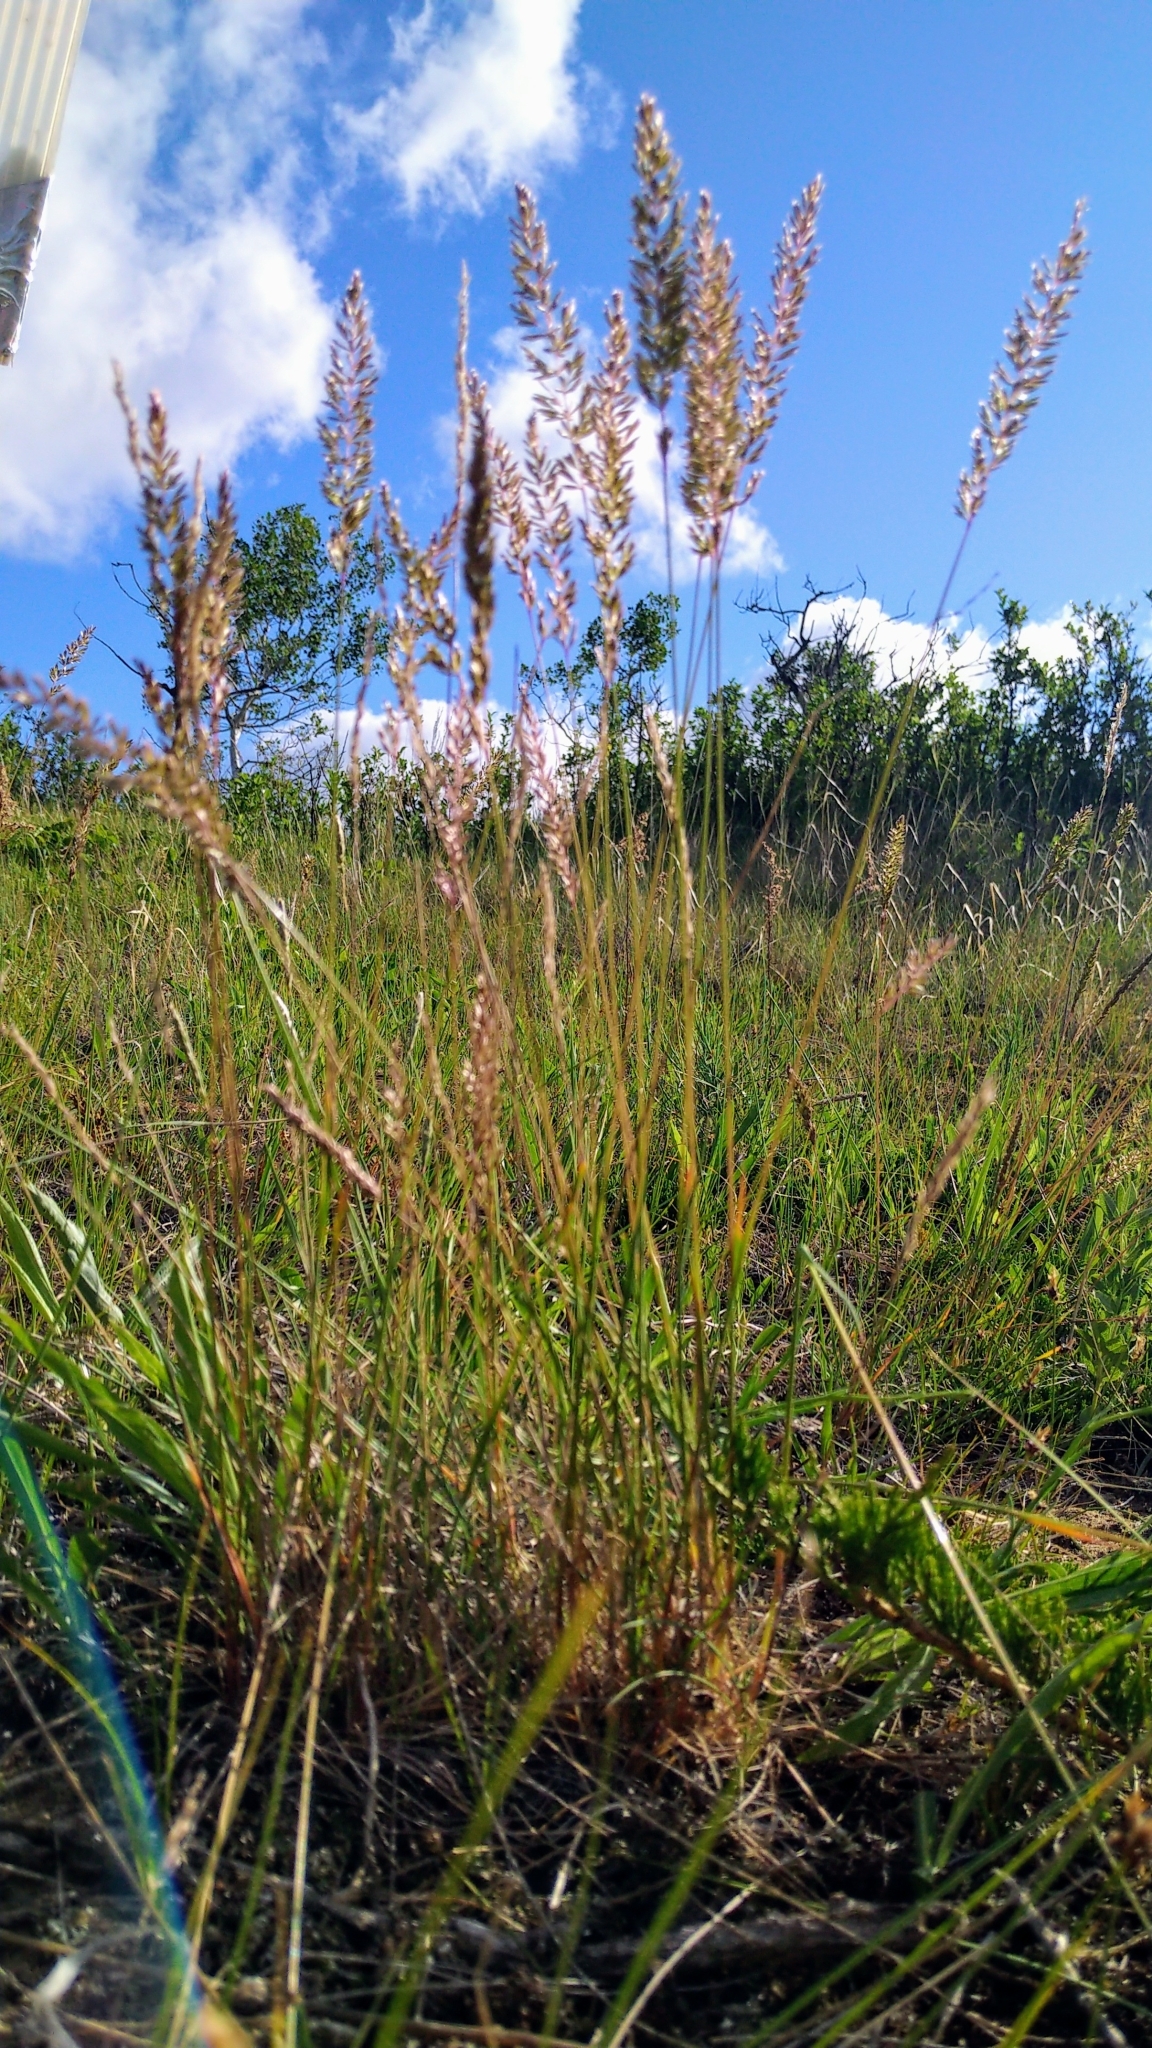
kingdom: Plantae
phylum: Tracheophyta
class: Liliopsida
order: Poales
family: Poaceae
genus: Koeleria
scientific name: Koeleria macrantha
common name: Crested hair-grass
